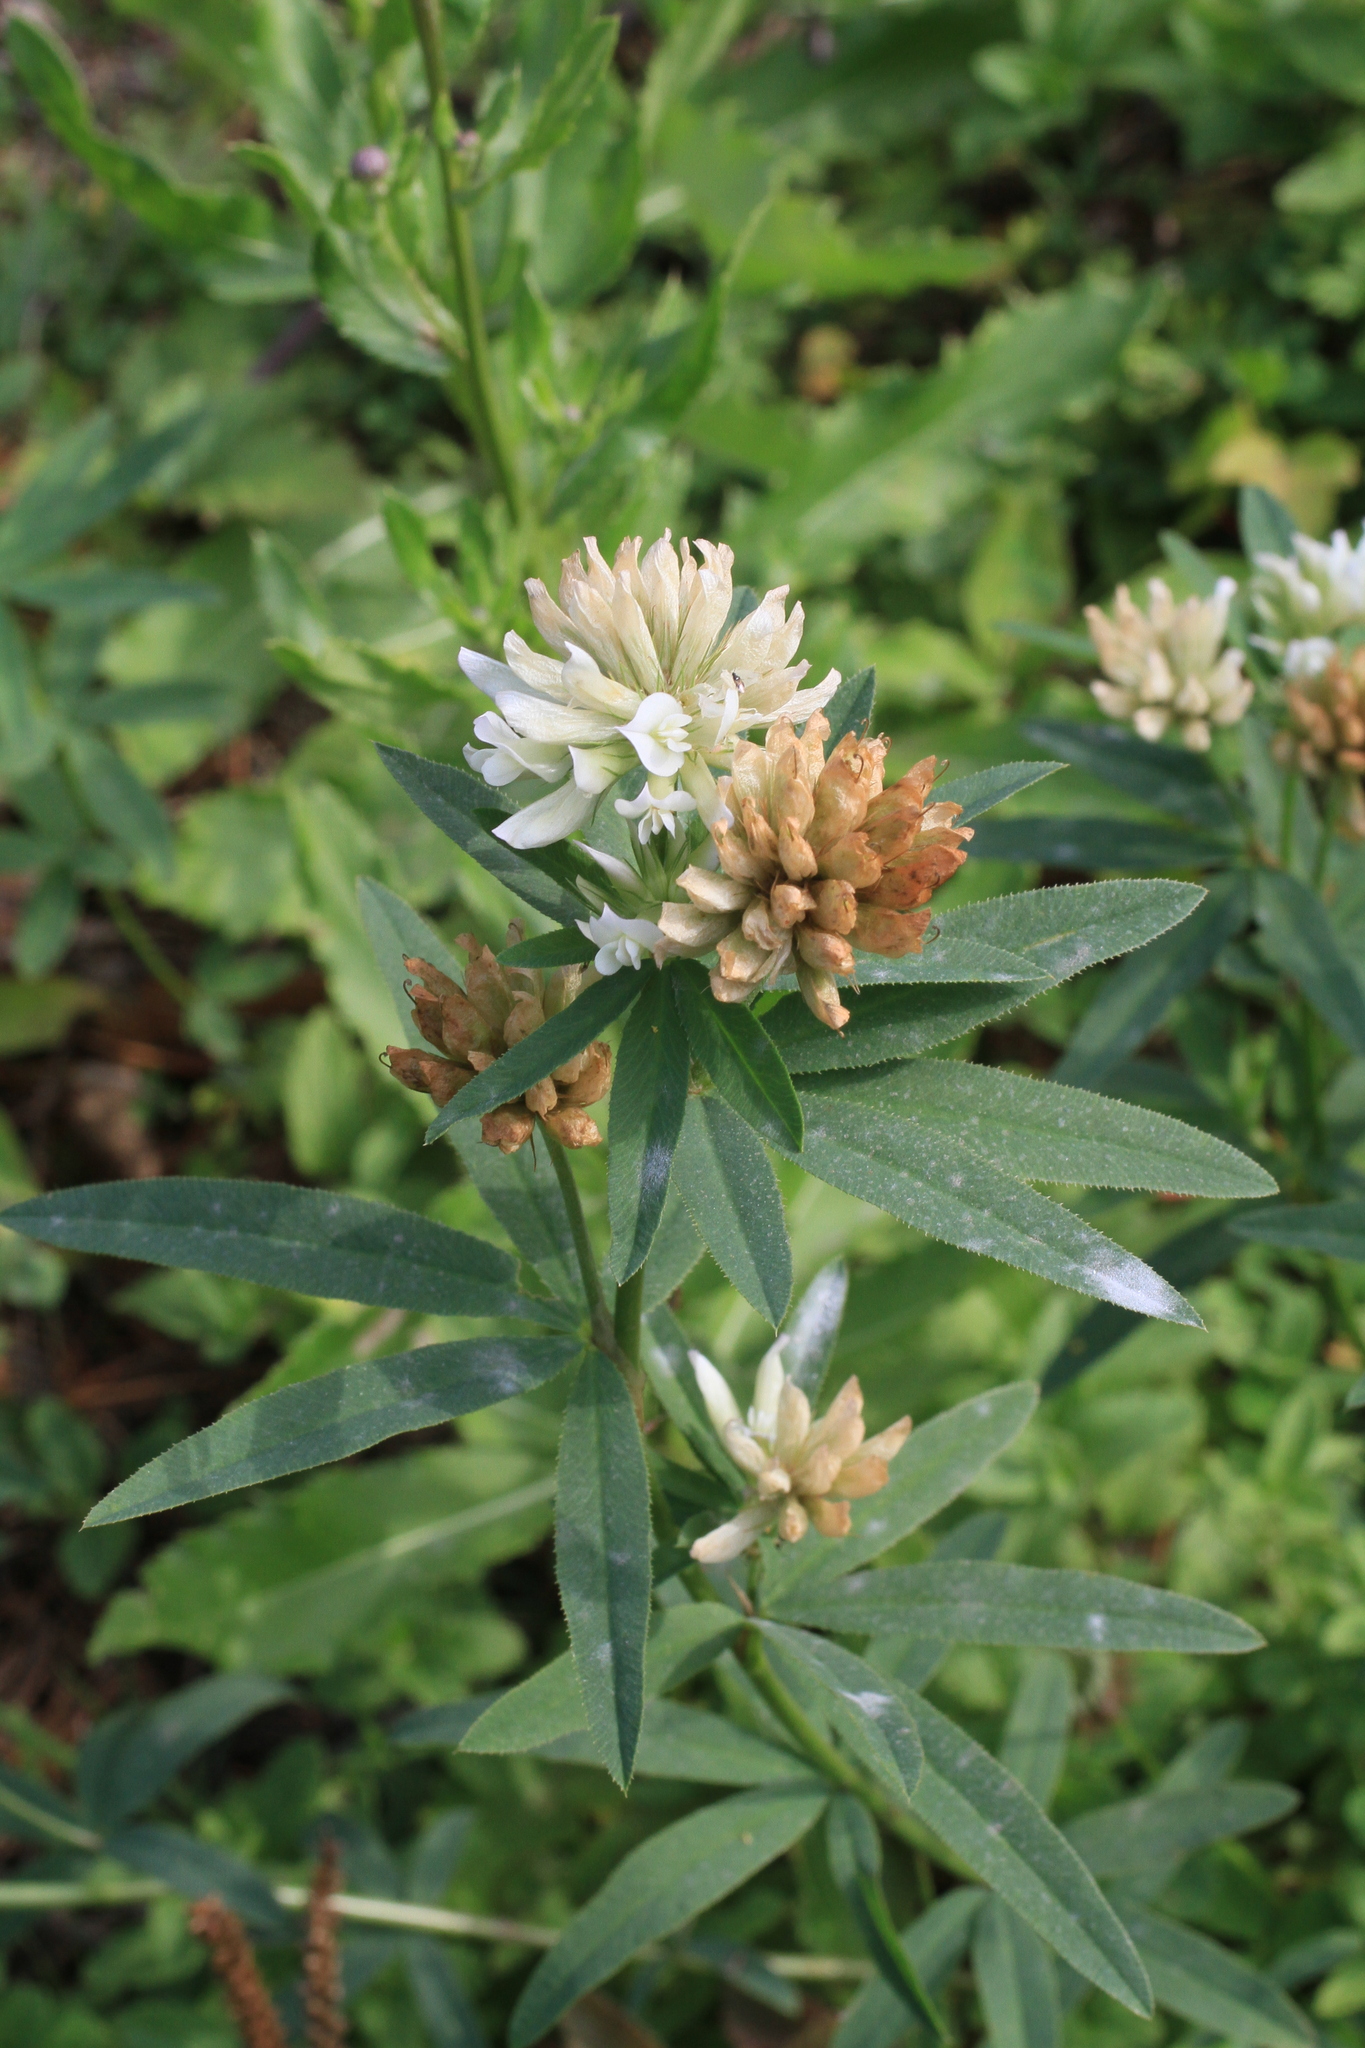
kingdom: Plantae
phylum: Tracheophyta
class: Magnoliopsida
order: Fabales
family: Fabaceae
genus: Trifolium
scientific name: Trifolium lupinaster
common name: Lupine clover
